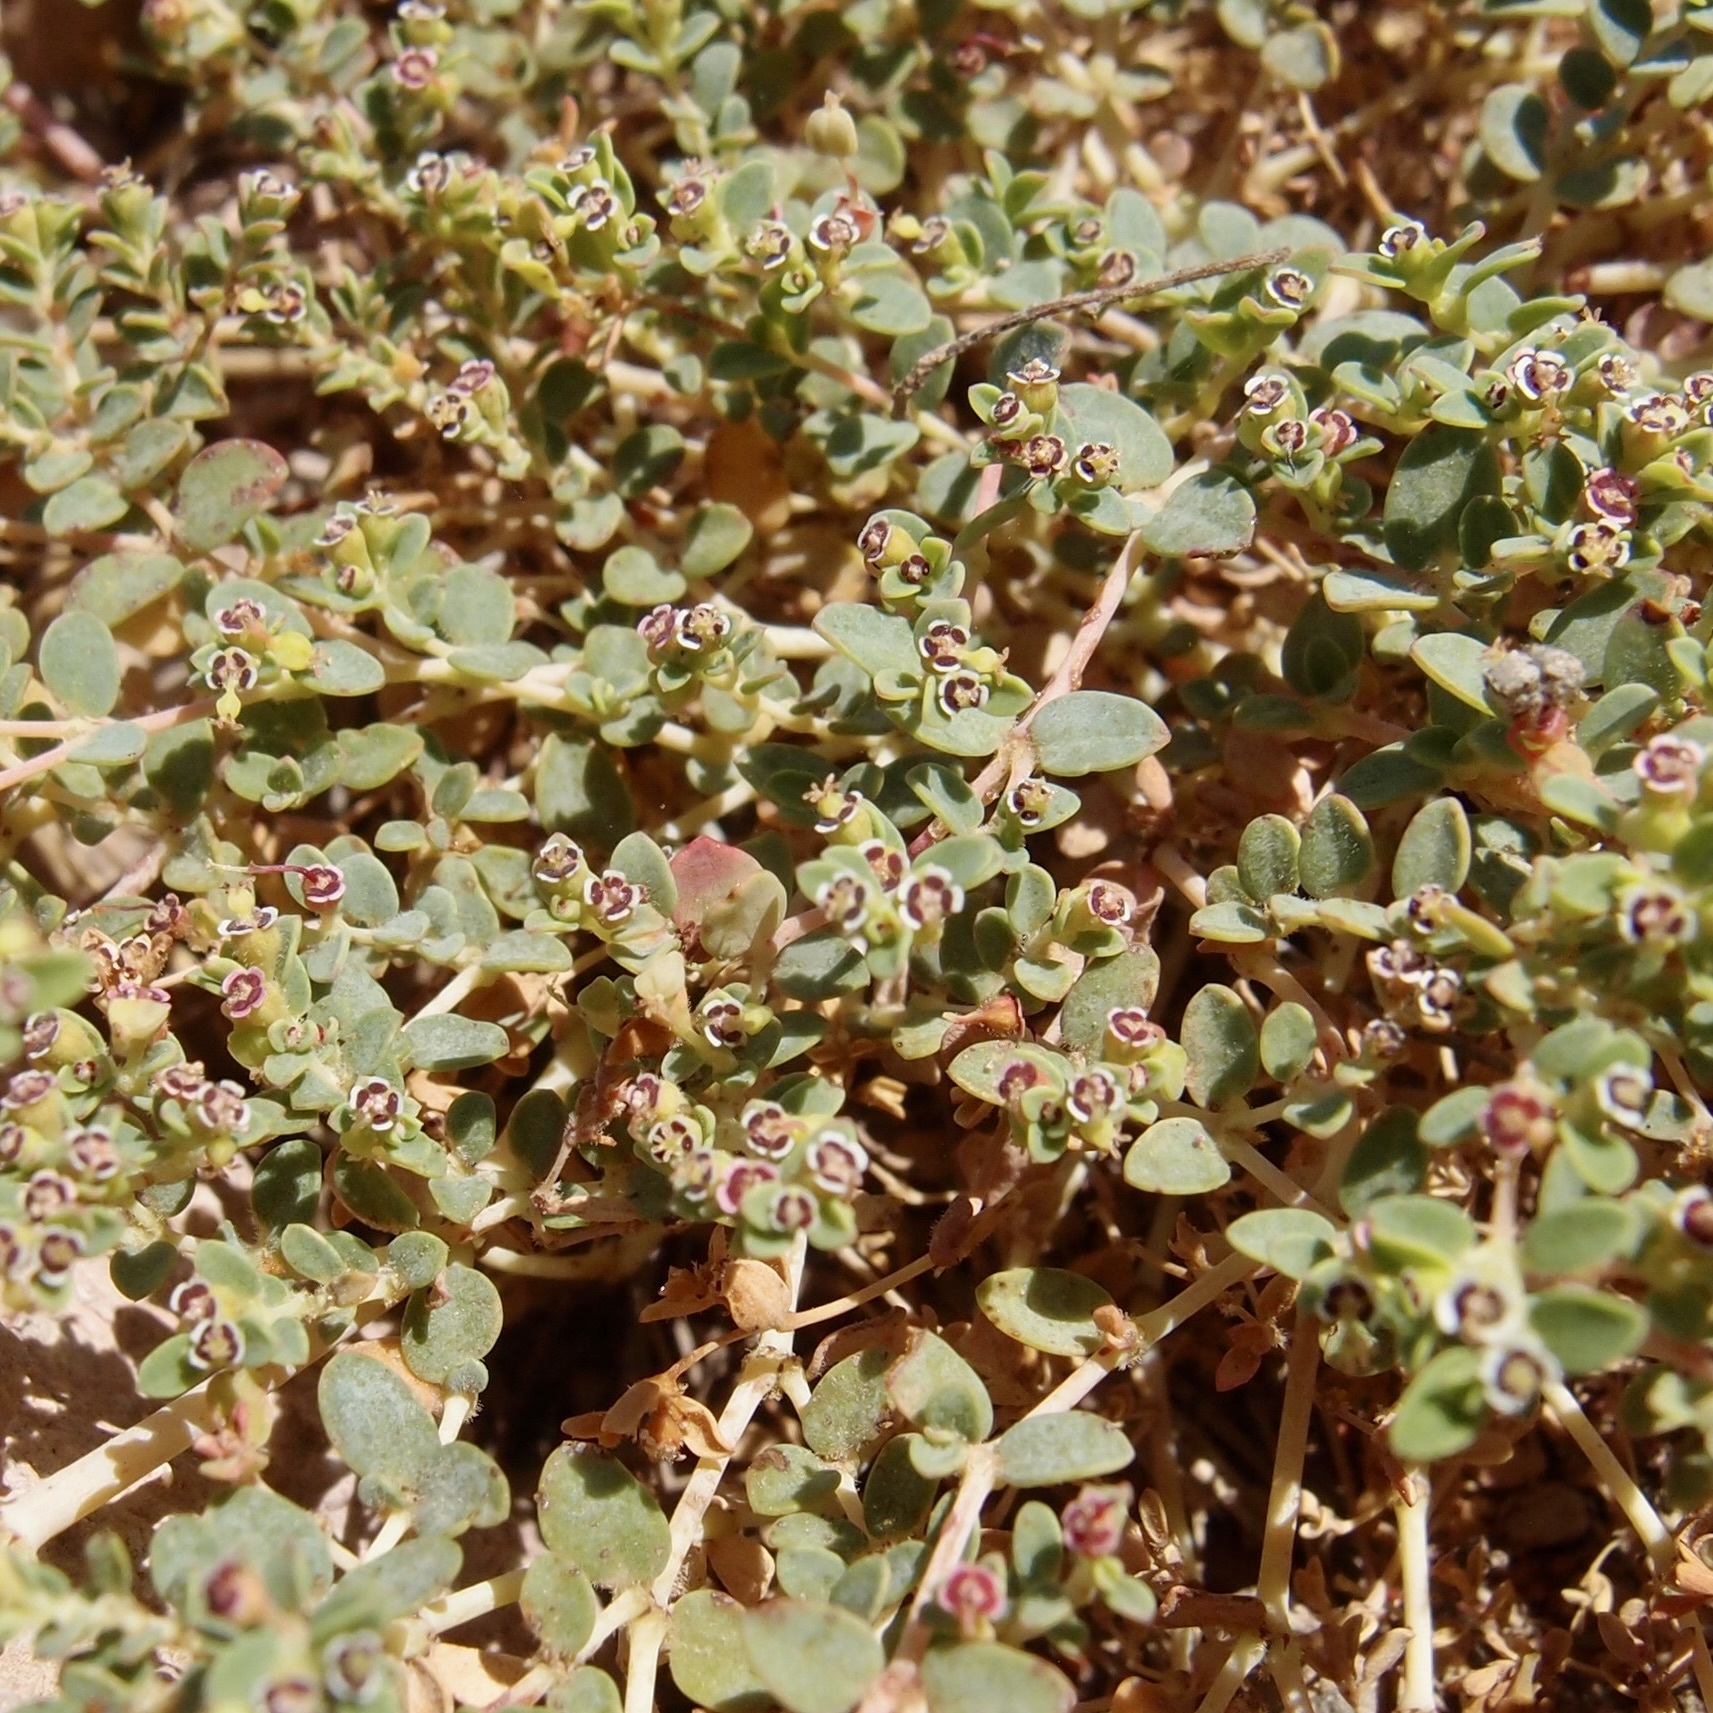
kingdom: Plantae
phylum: Tracheophyta
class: Magnoliopsida
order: Malpighiales
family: Euphorbiaceae
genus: Euphorbia
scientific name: Euphorbia polycarpa
